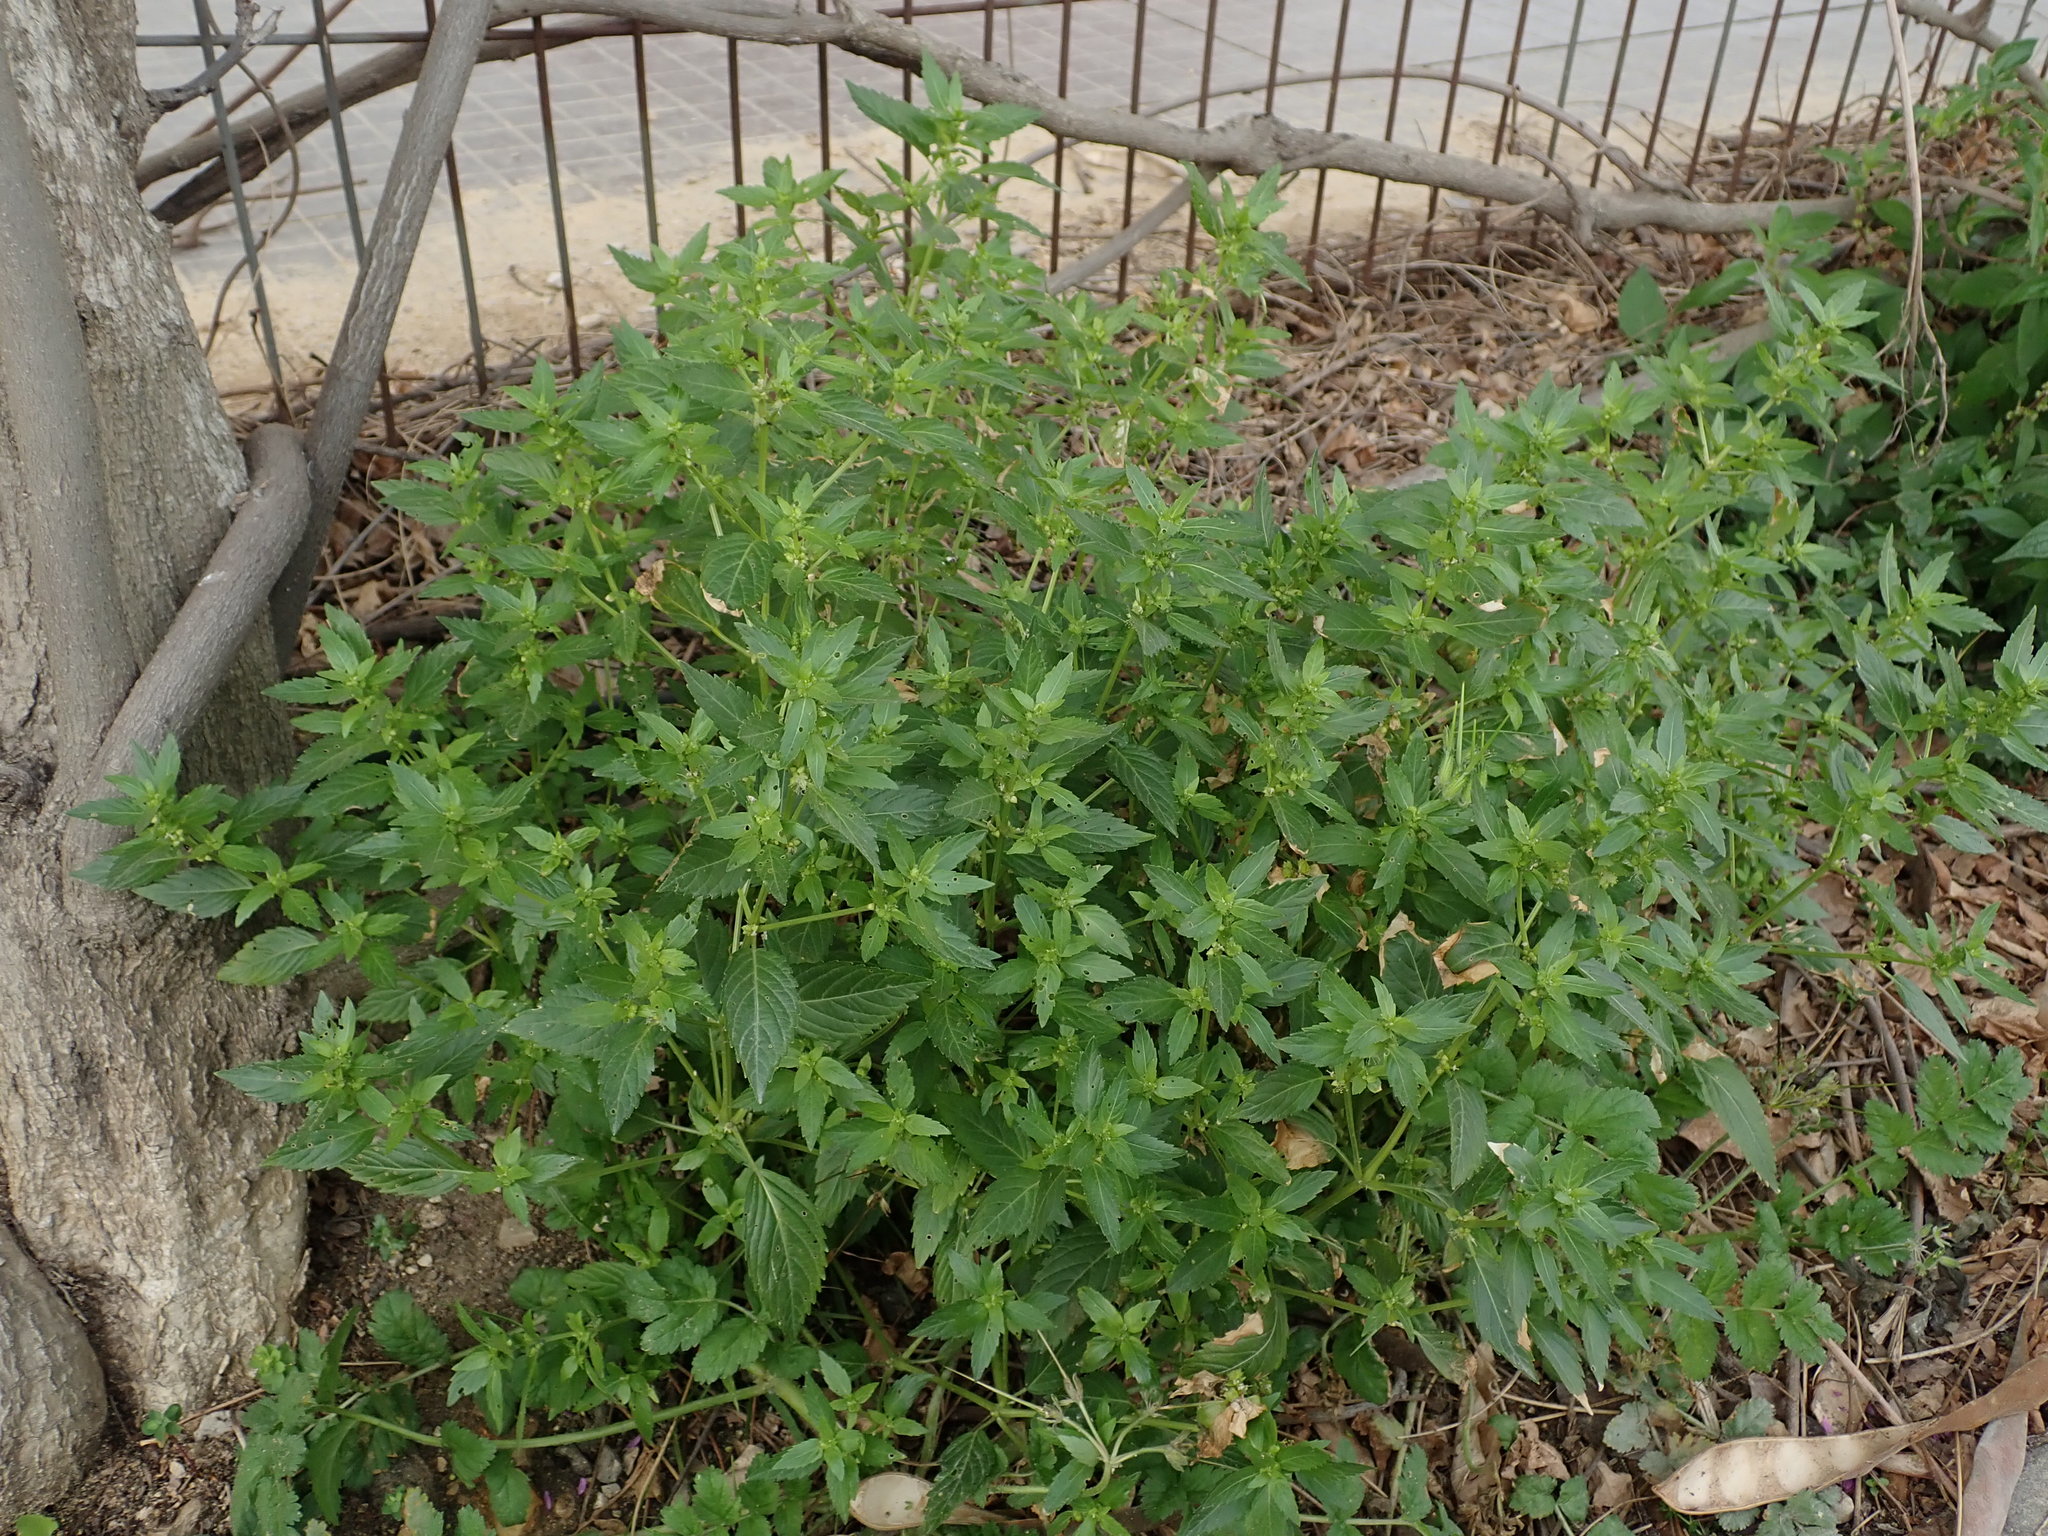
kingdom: Plantae
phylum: Tracheophyta
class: Magnoliopsida
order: Malpighiales
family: Euphorbiaceae
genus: Mercurialis
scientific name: Mercurialis annua
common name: Annual mercury
